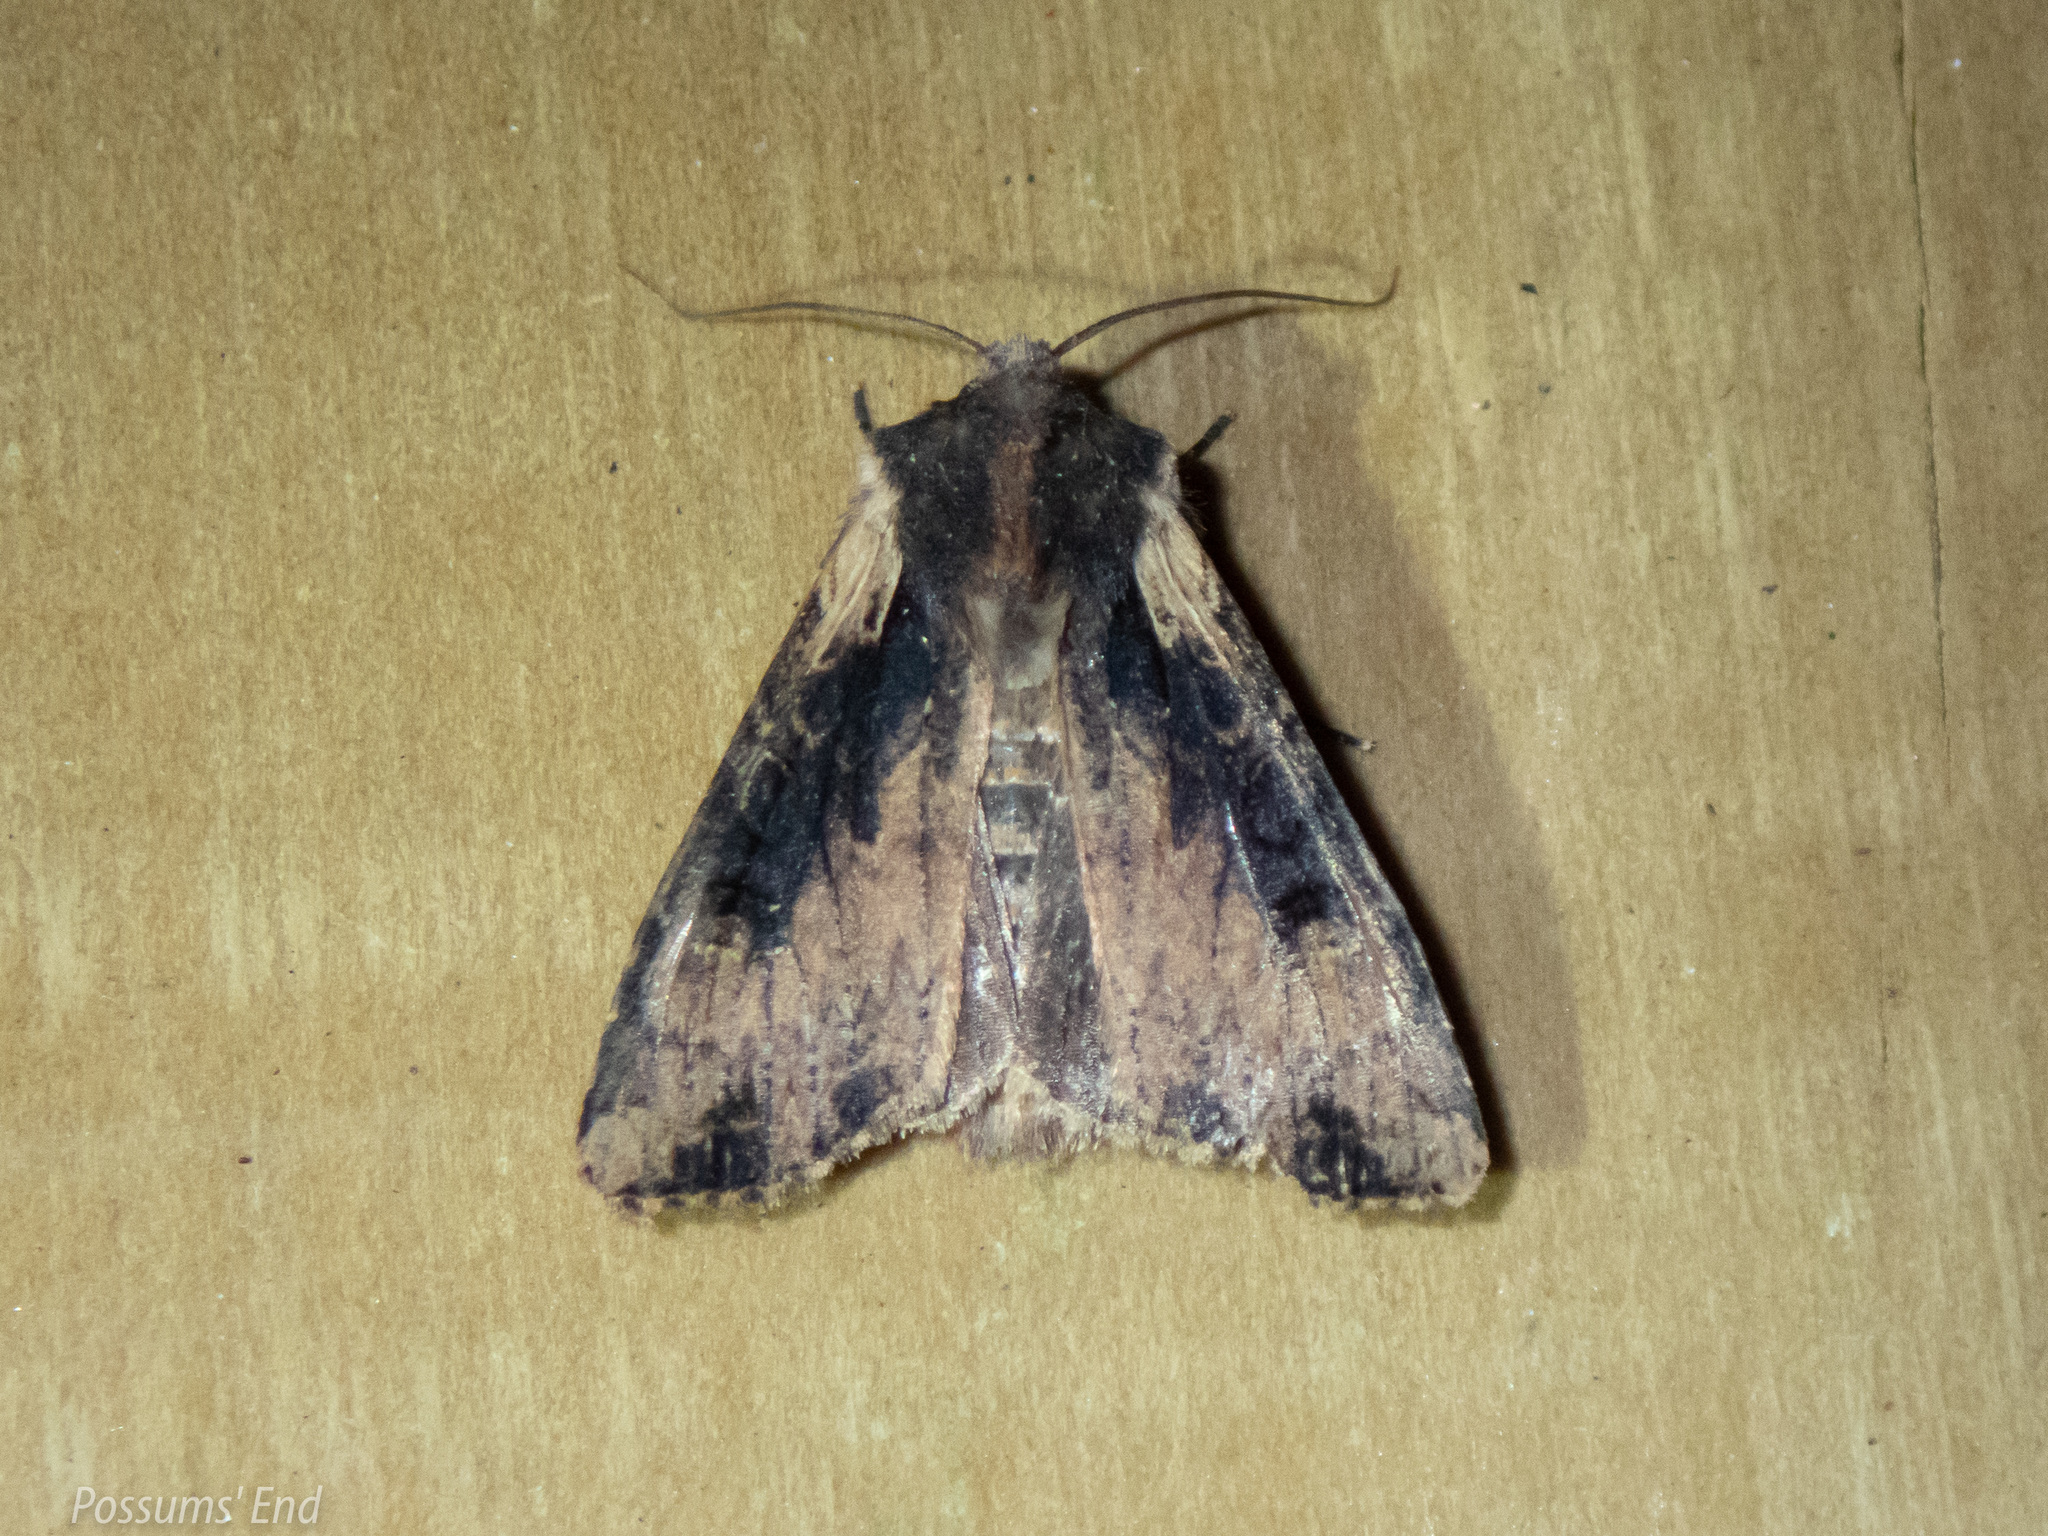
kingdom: Animalia
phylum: Arthropoda
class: Insecta
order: Lepidoptera
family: Noctuidae
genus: Ichneutica
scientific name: Ichneutica omoplaca
